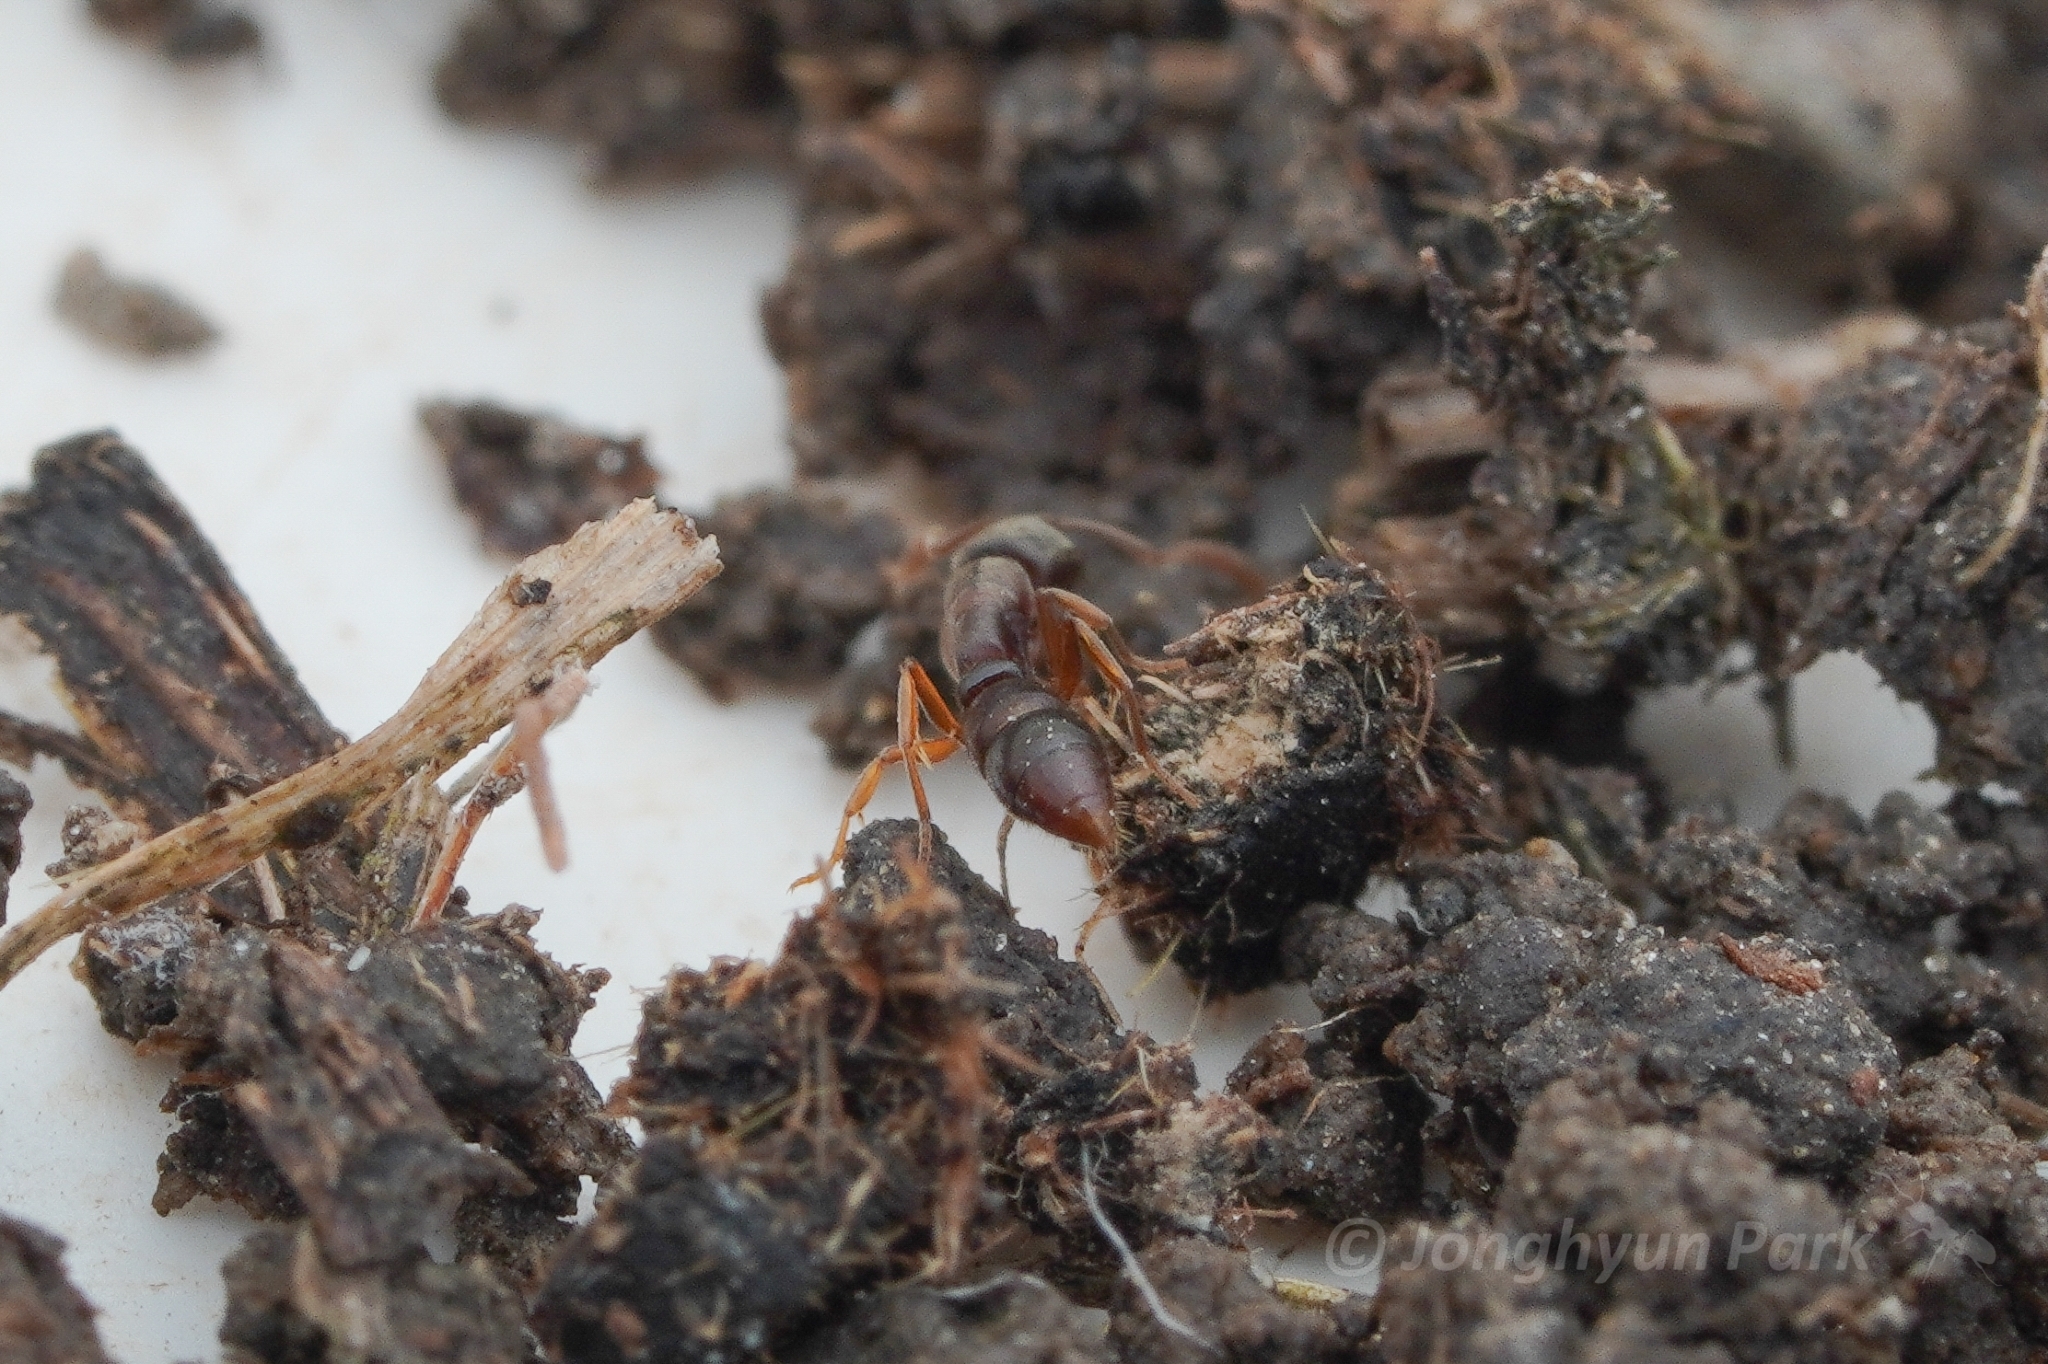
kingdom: Animalia
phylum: Arthropoda
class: Insecta
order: Hymenoptera
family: Formicidae
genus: Ponera
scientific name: Ponera pennsylvanica
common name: Pennsylvania ponera
